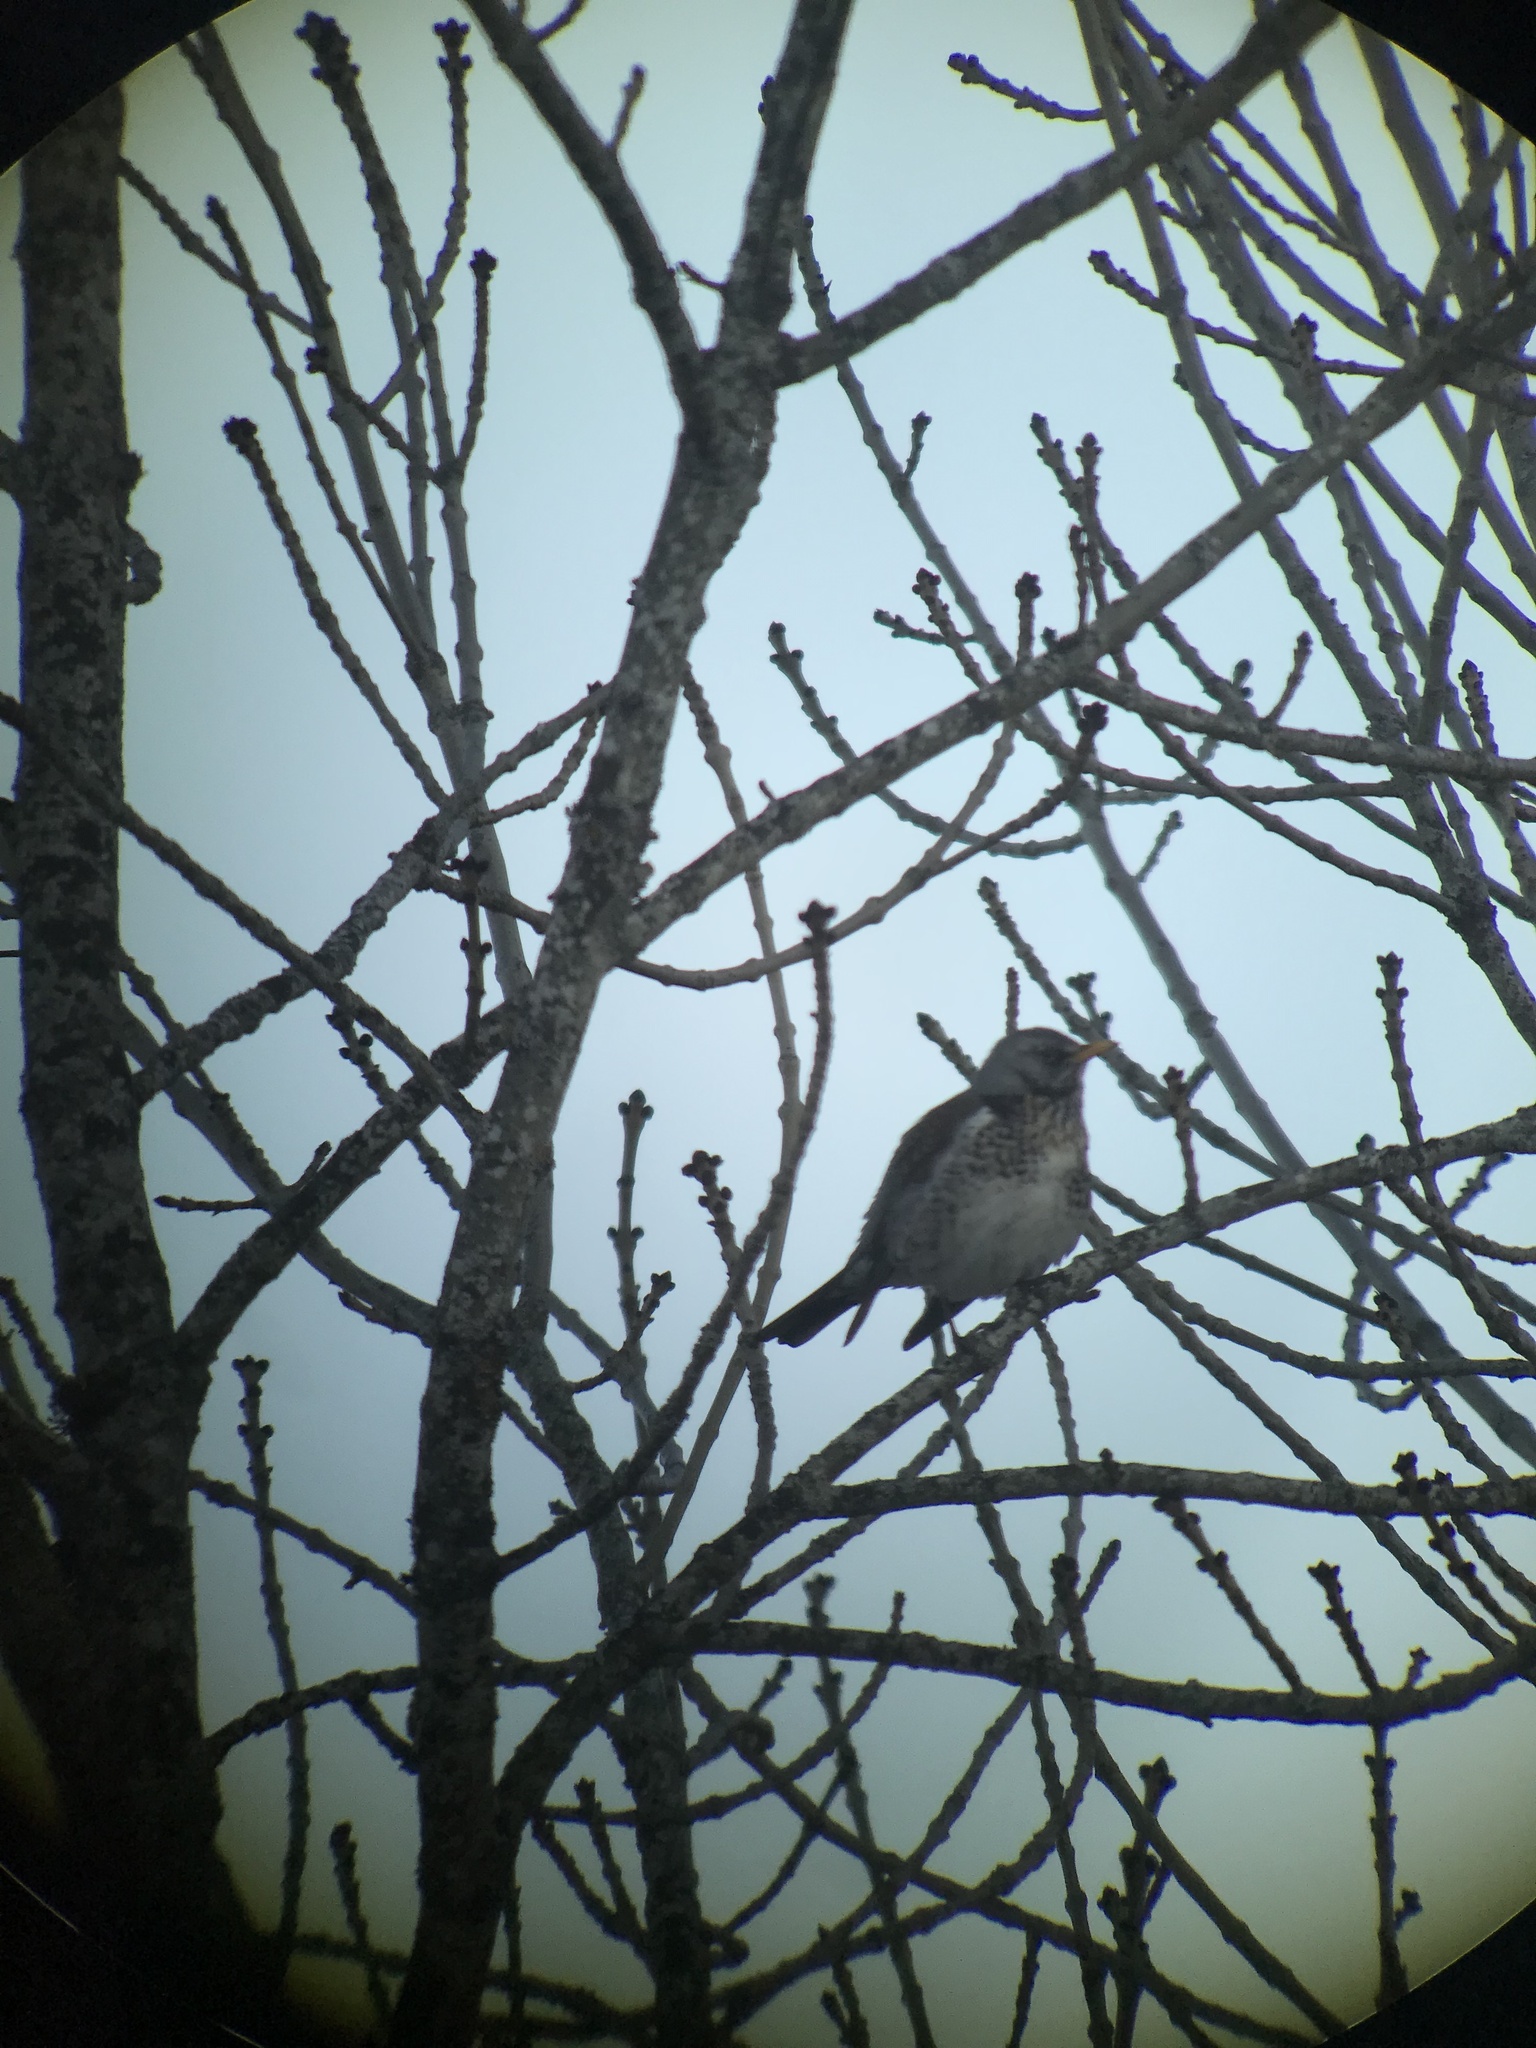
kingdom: Animalia
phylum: Chordata
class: Aves
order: Passeriformes
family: Turdidae
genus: Turdus
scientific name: Turdus pilaris
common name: Fieldfare
